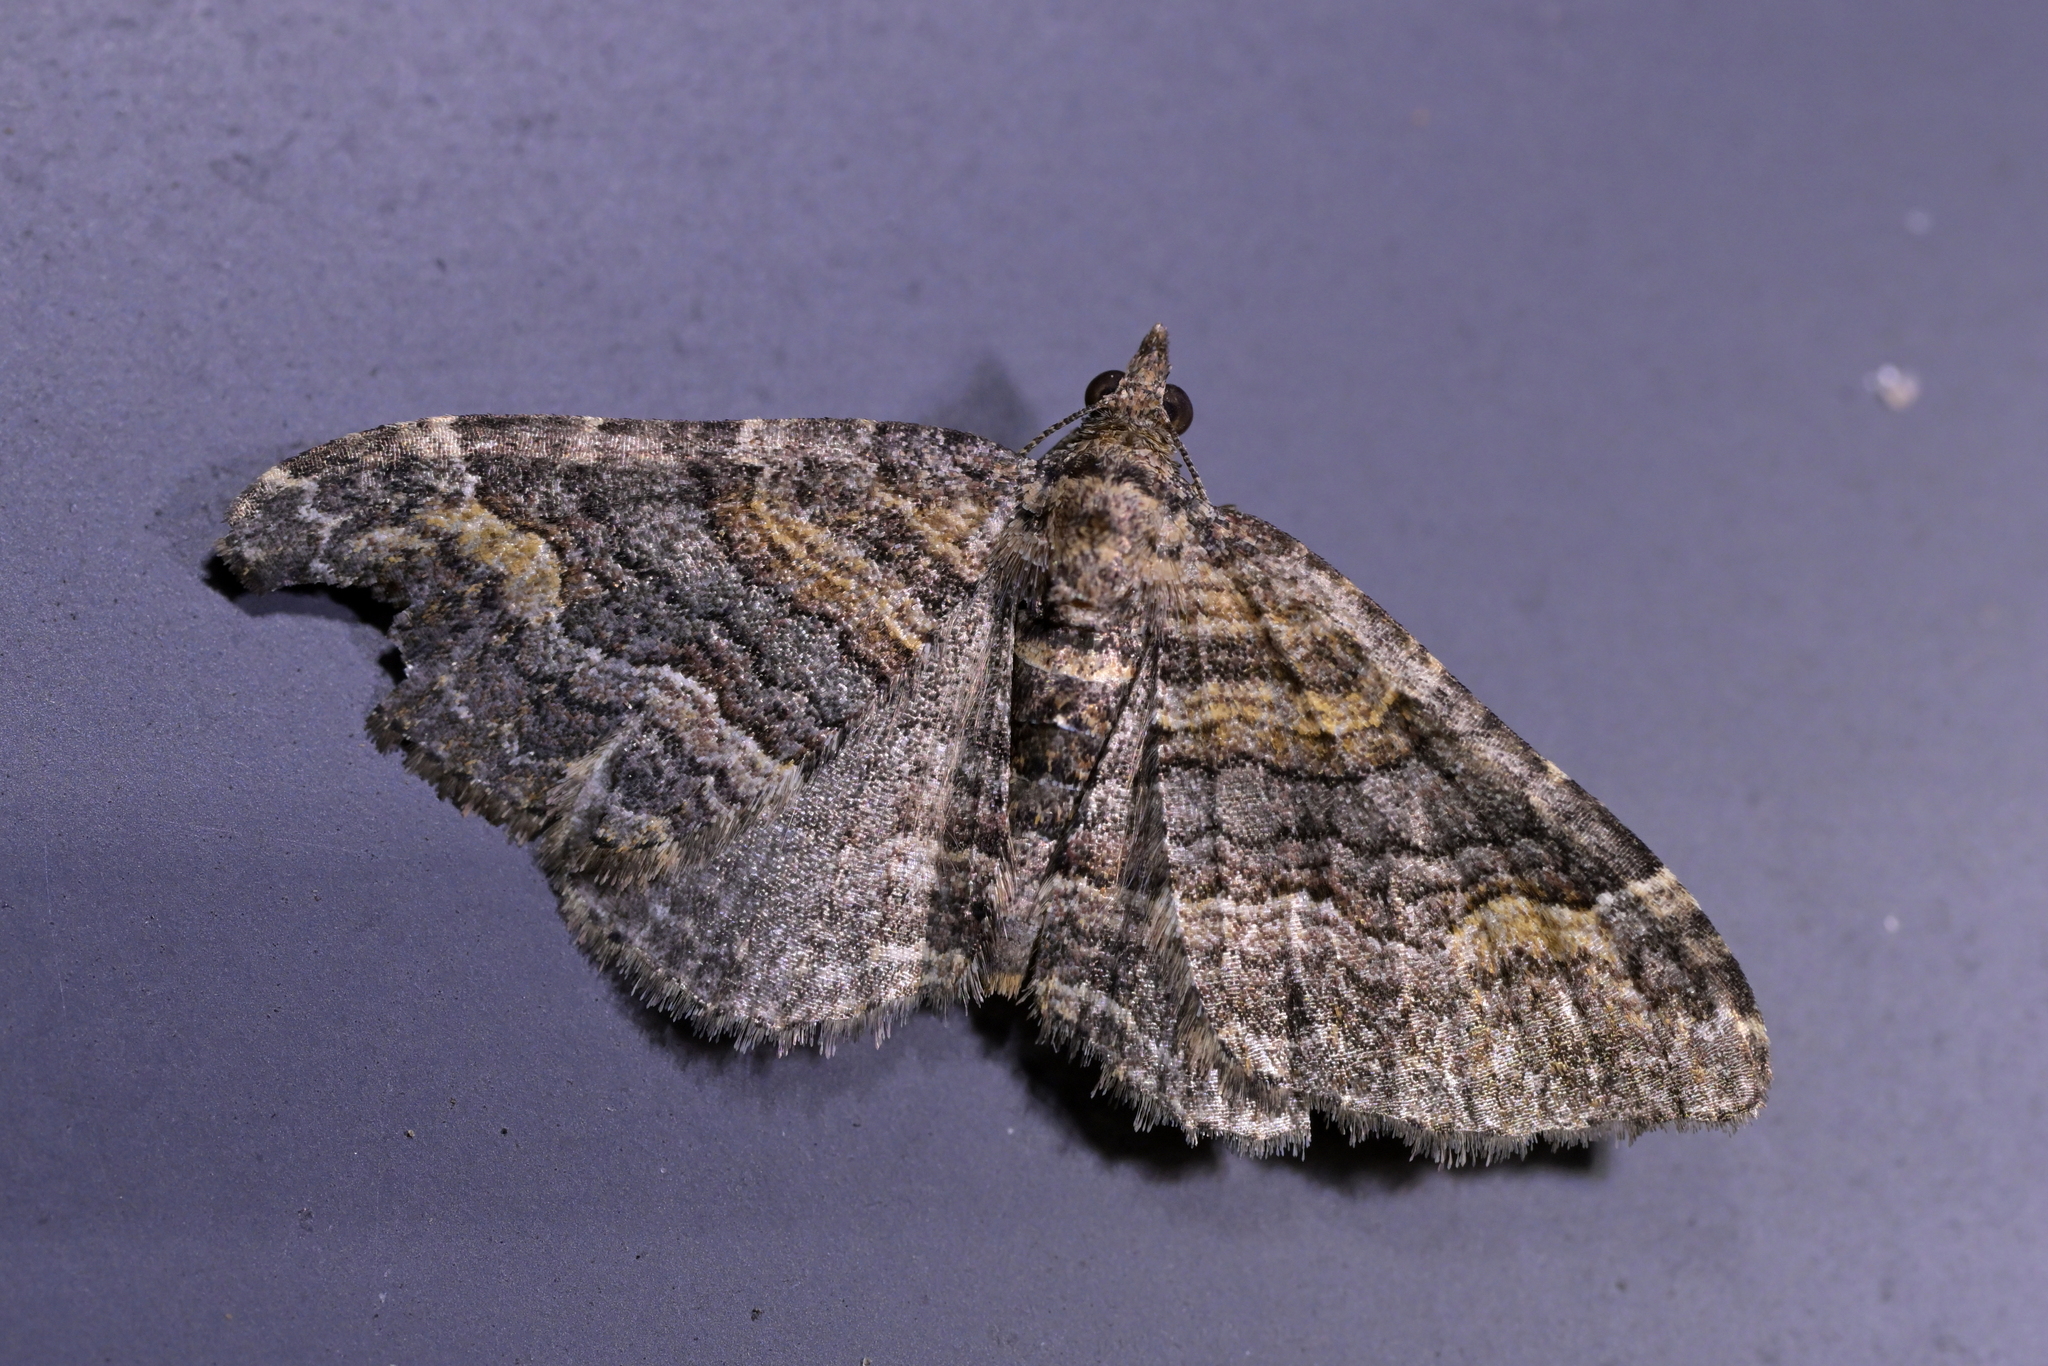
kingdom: Animalia
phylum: Arthropoda
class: Insecta
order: Lepidoptera
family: Geometridae
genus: Epyaxa
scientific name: Epyaxa lucidata
